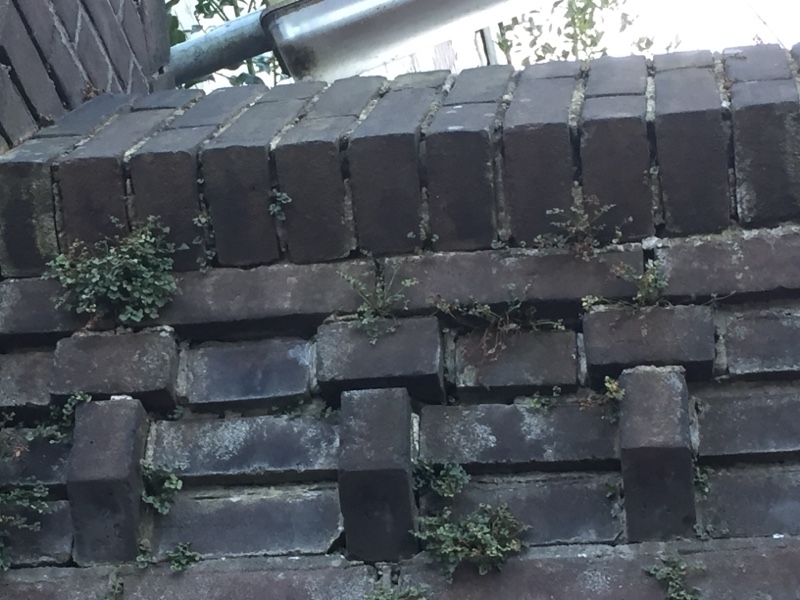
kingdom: Plantae
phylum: Tracheophyta
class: Polypodiopsida
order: Polypodiales
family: Aspleniaceae
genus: Asplenium
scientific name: Asplenium ruta-muraria
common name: Wall-rue
